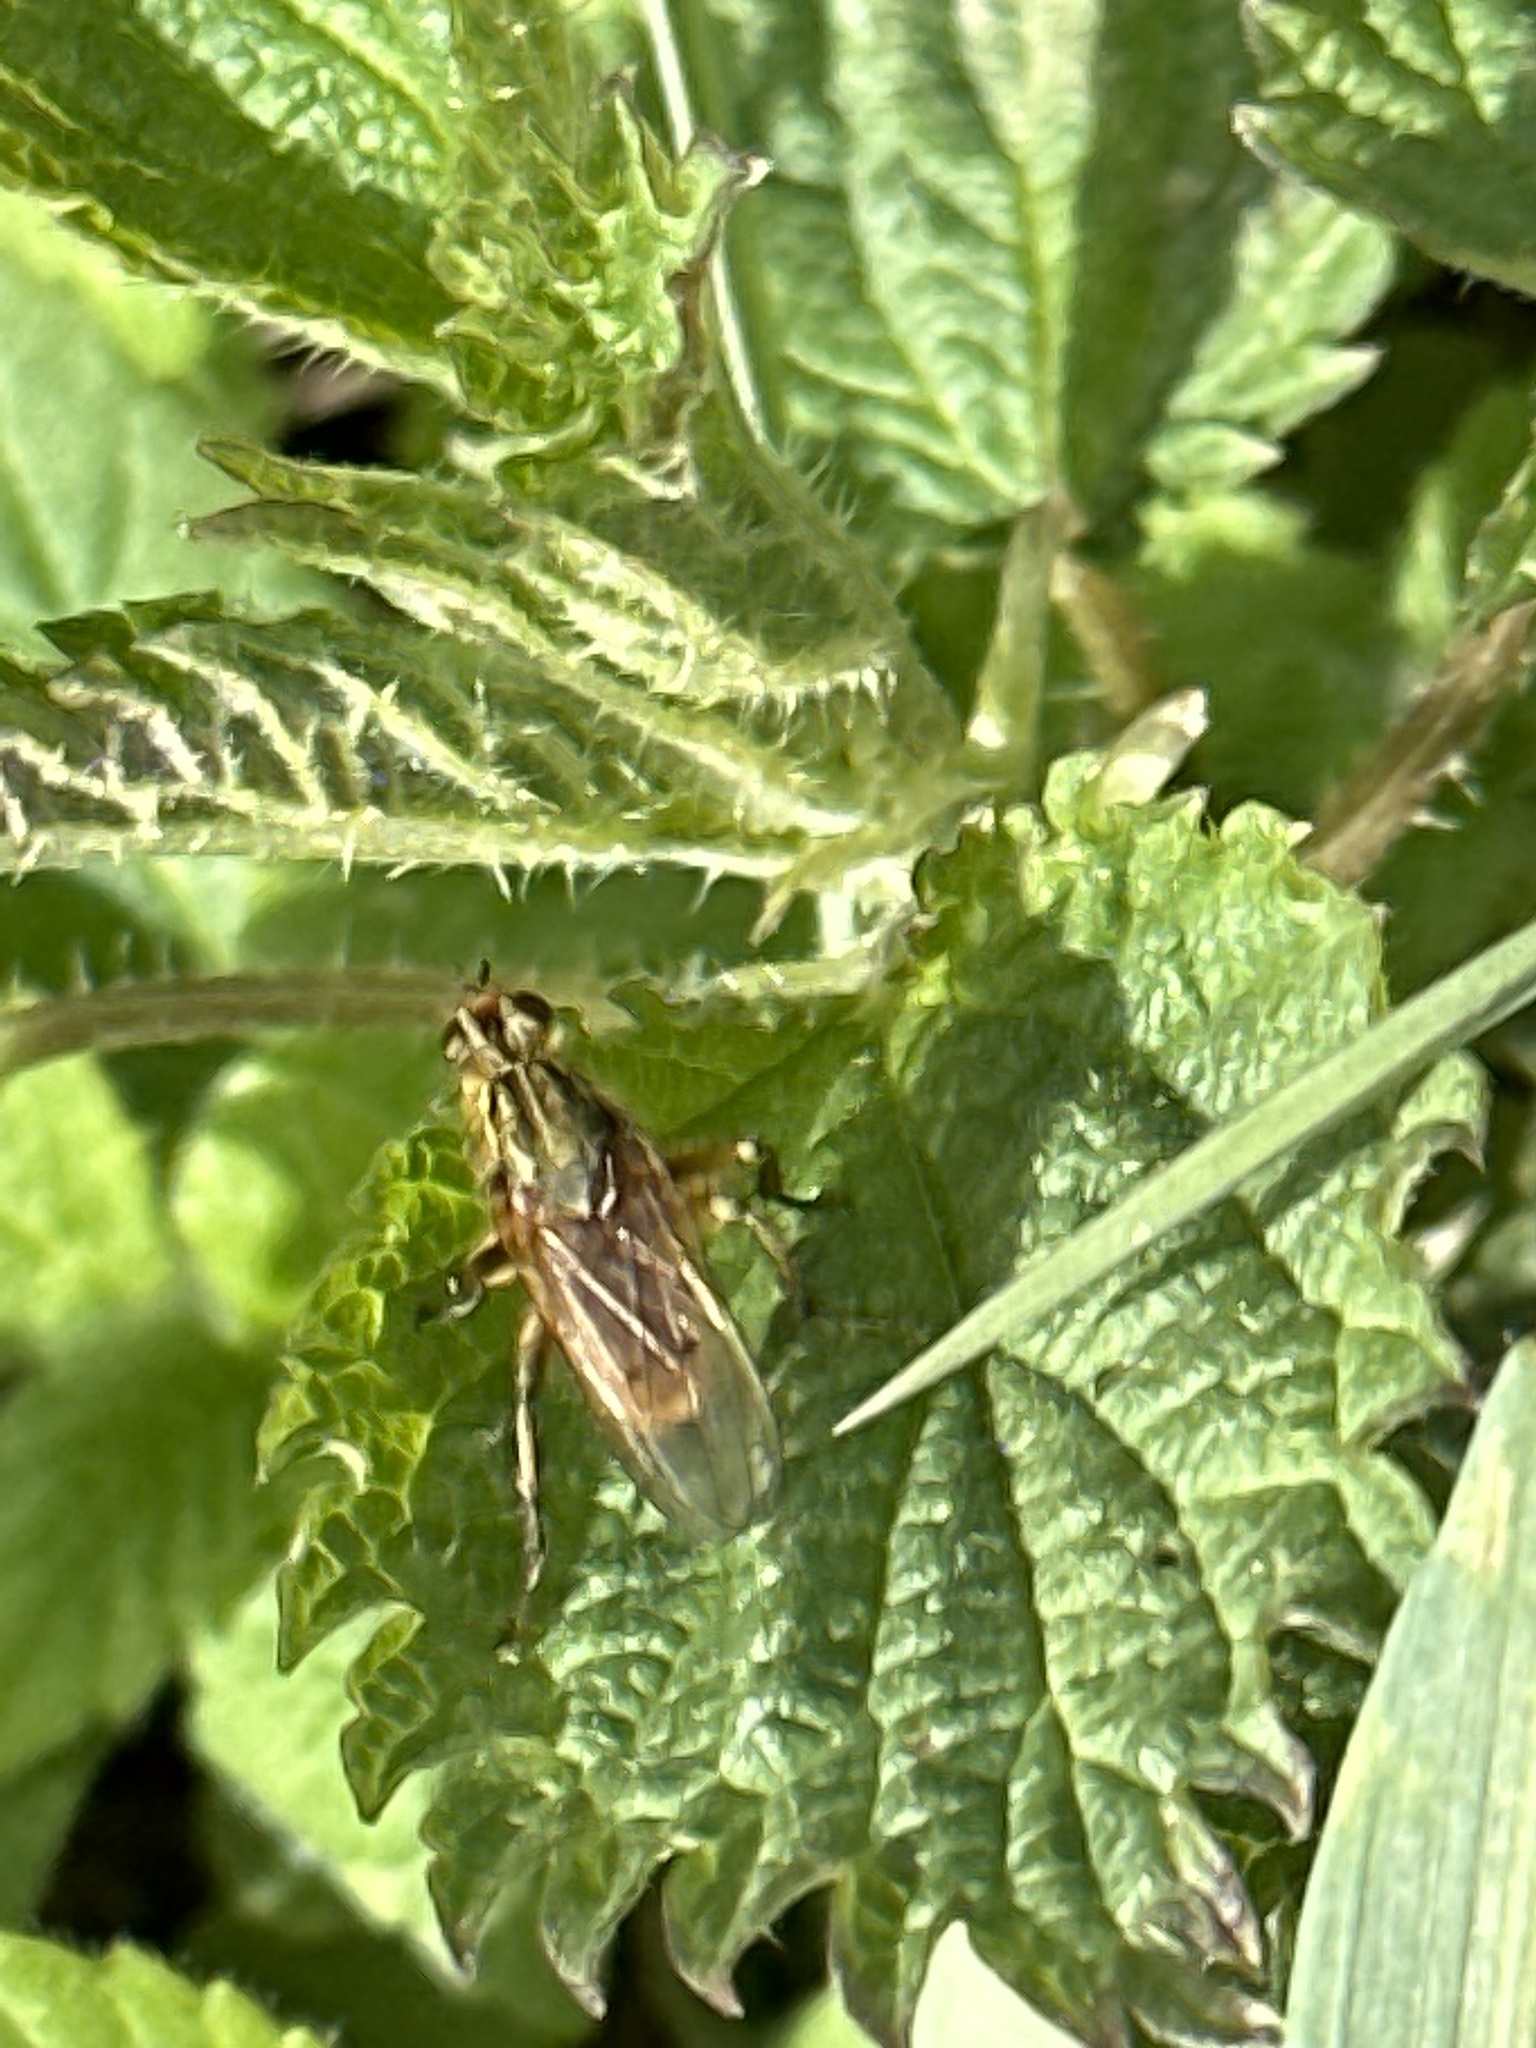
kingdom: Animalia
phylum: Arthropoda
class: Insecta
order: Diptera
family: Scathophagidae
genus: Scathophaga
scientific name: Scathophaga stercoraria
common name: Yellow dung fly
